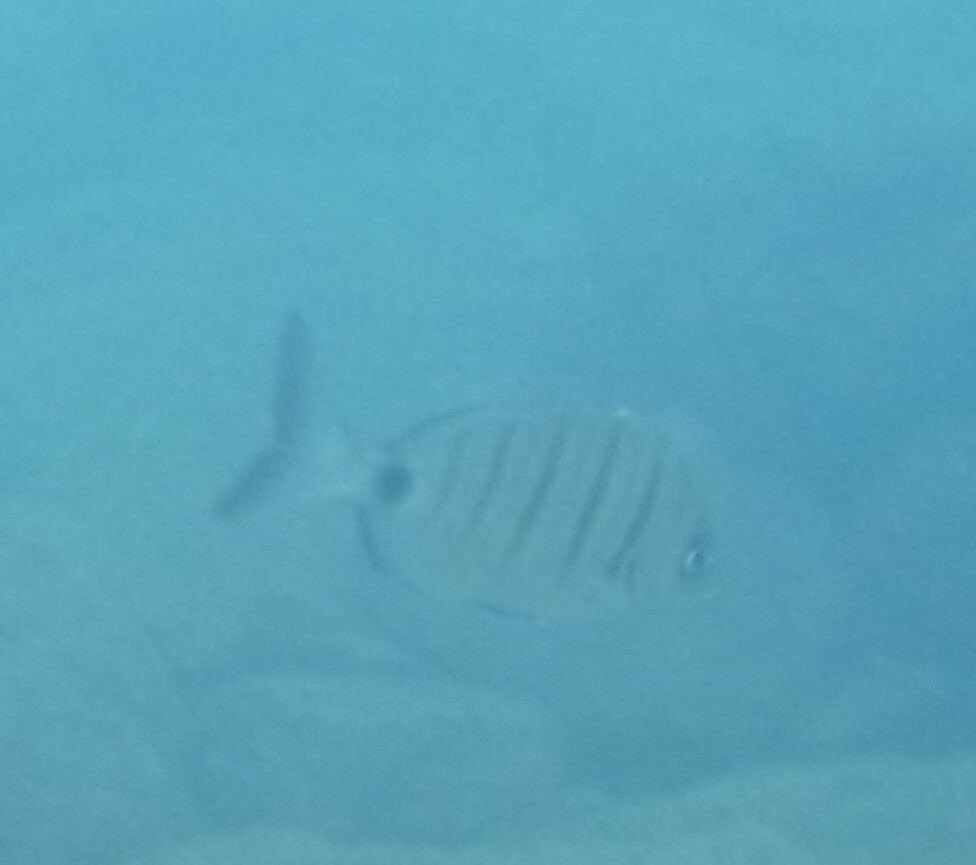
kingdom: Animalia
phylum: Chordata
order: Perciformes
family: Sparidae
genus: Diplodus
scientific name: Diplodus cadenati
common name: Moroccan white seabream
